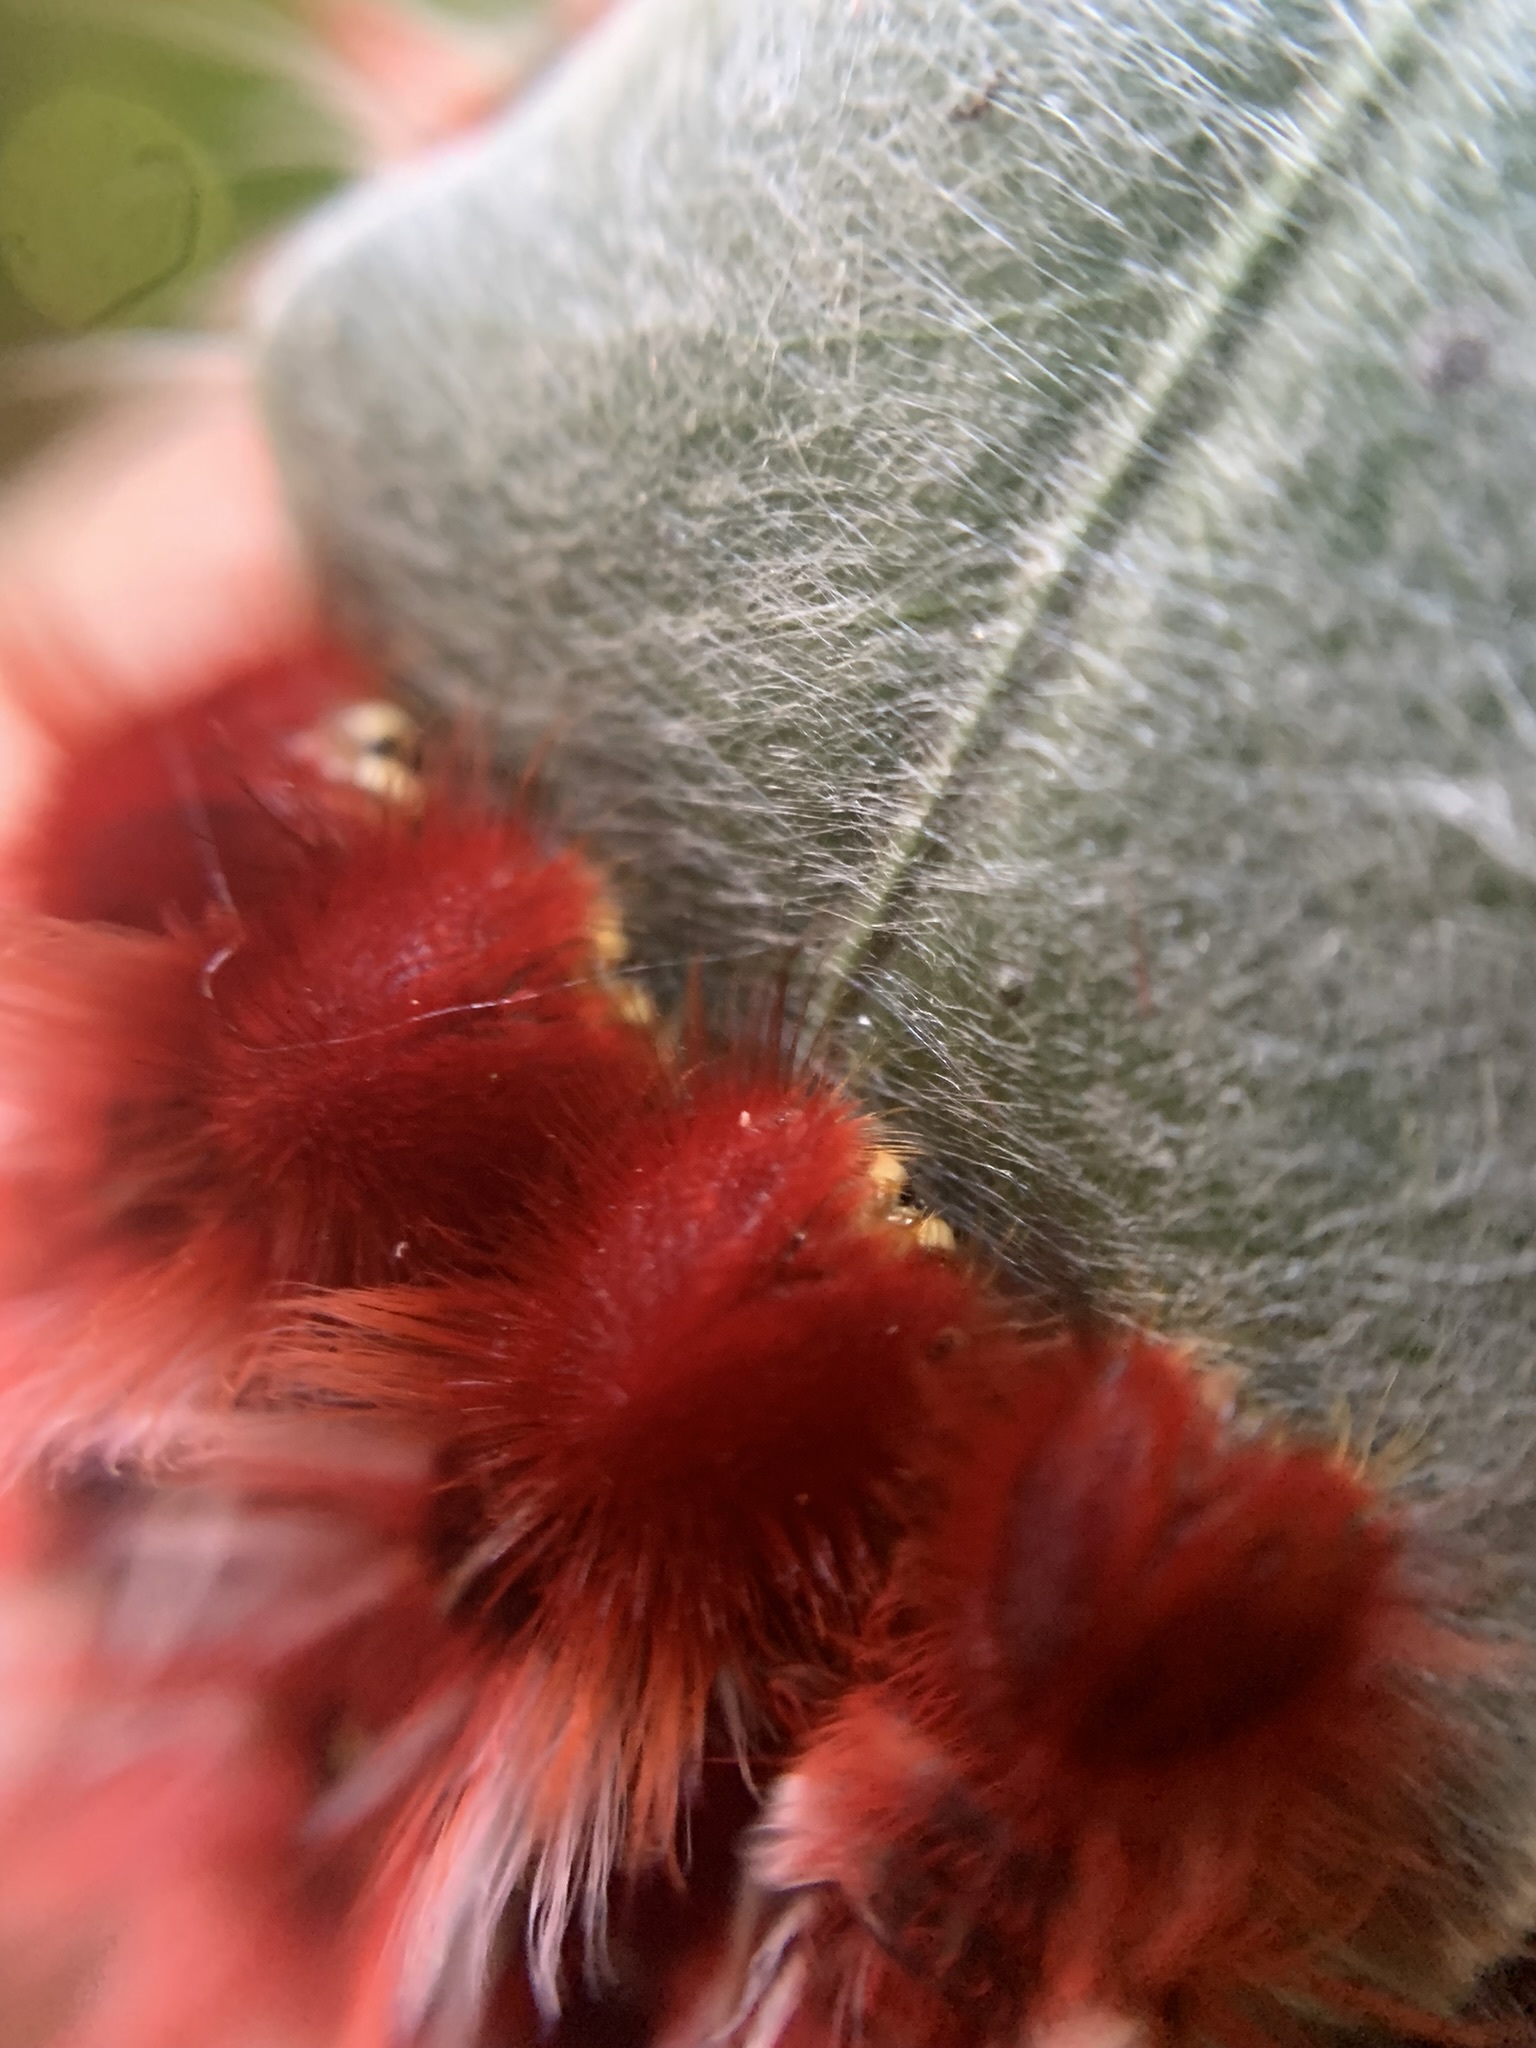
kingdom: Animalia
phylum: Arthropoda
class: Insecta
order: Lepidoptera
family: Nymphalidae
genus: Morpho
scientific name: Morpho epistrophus
